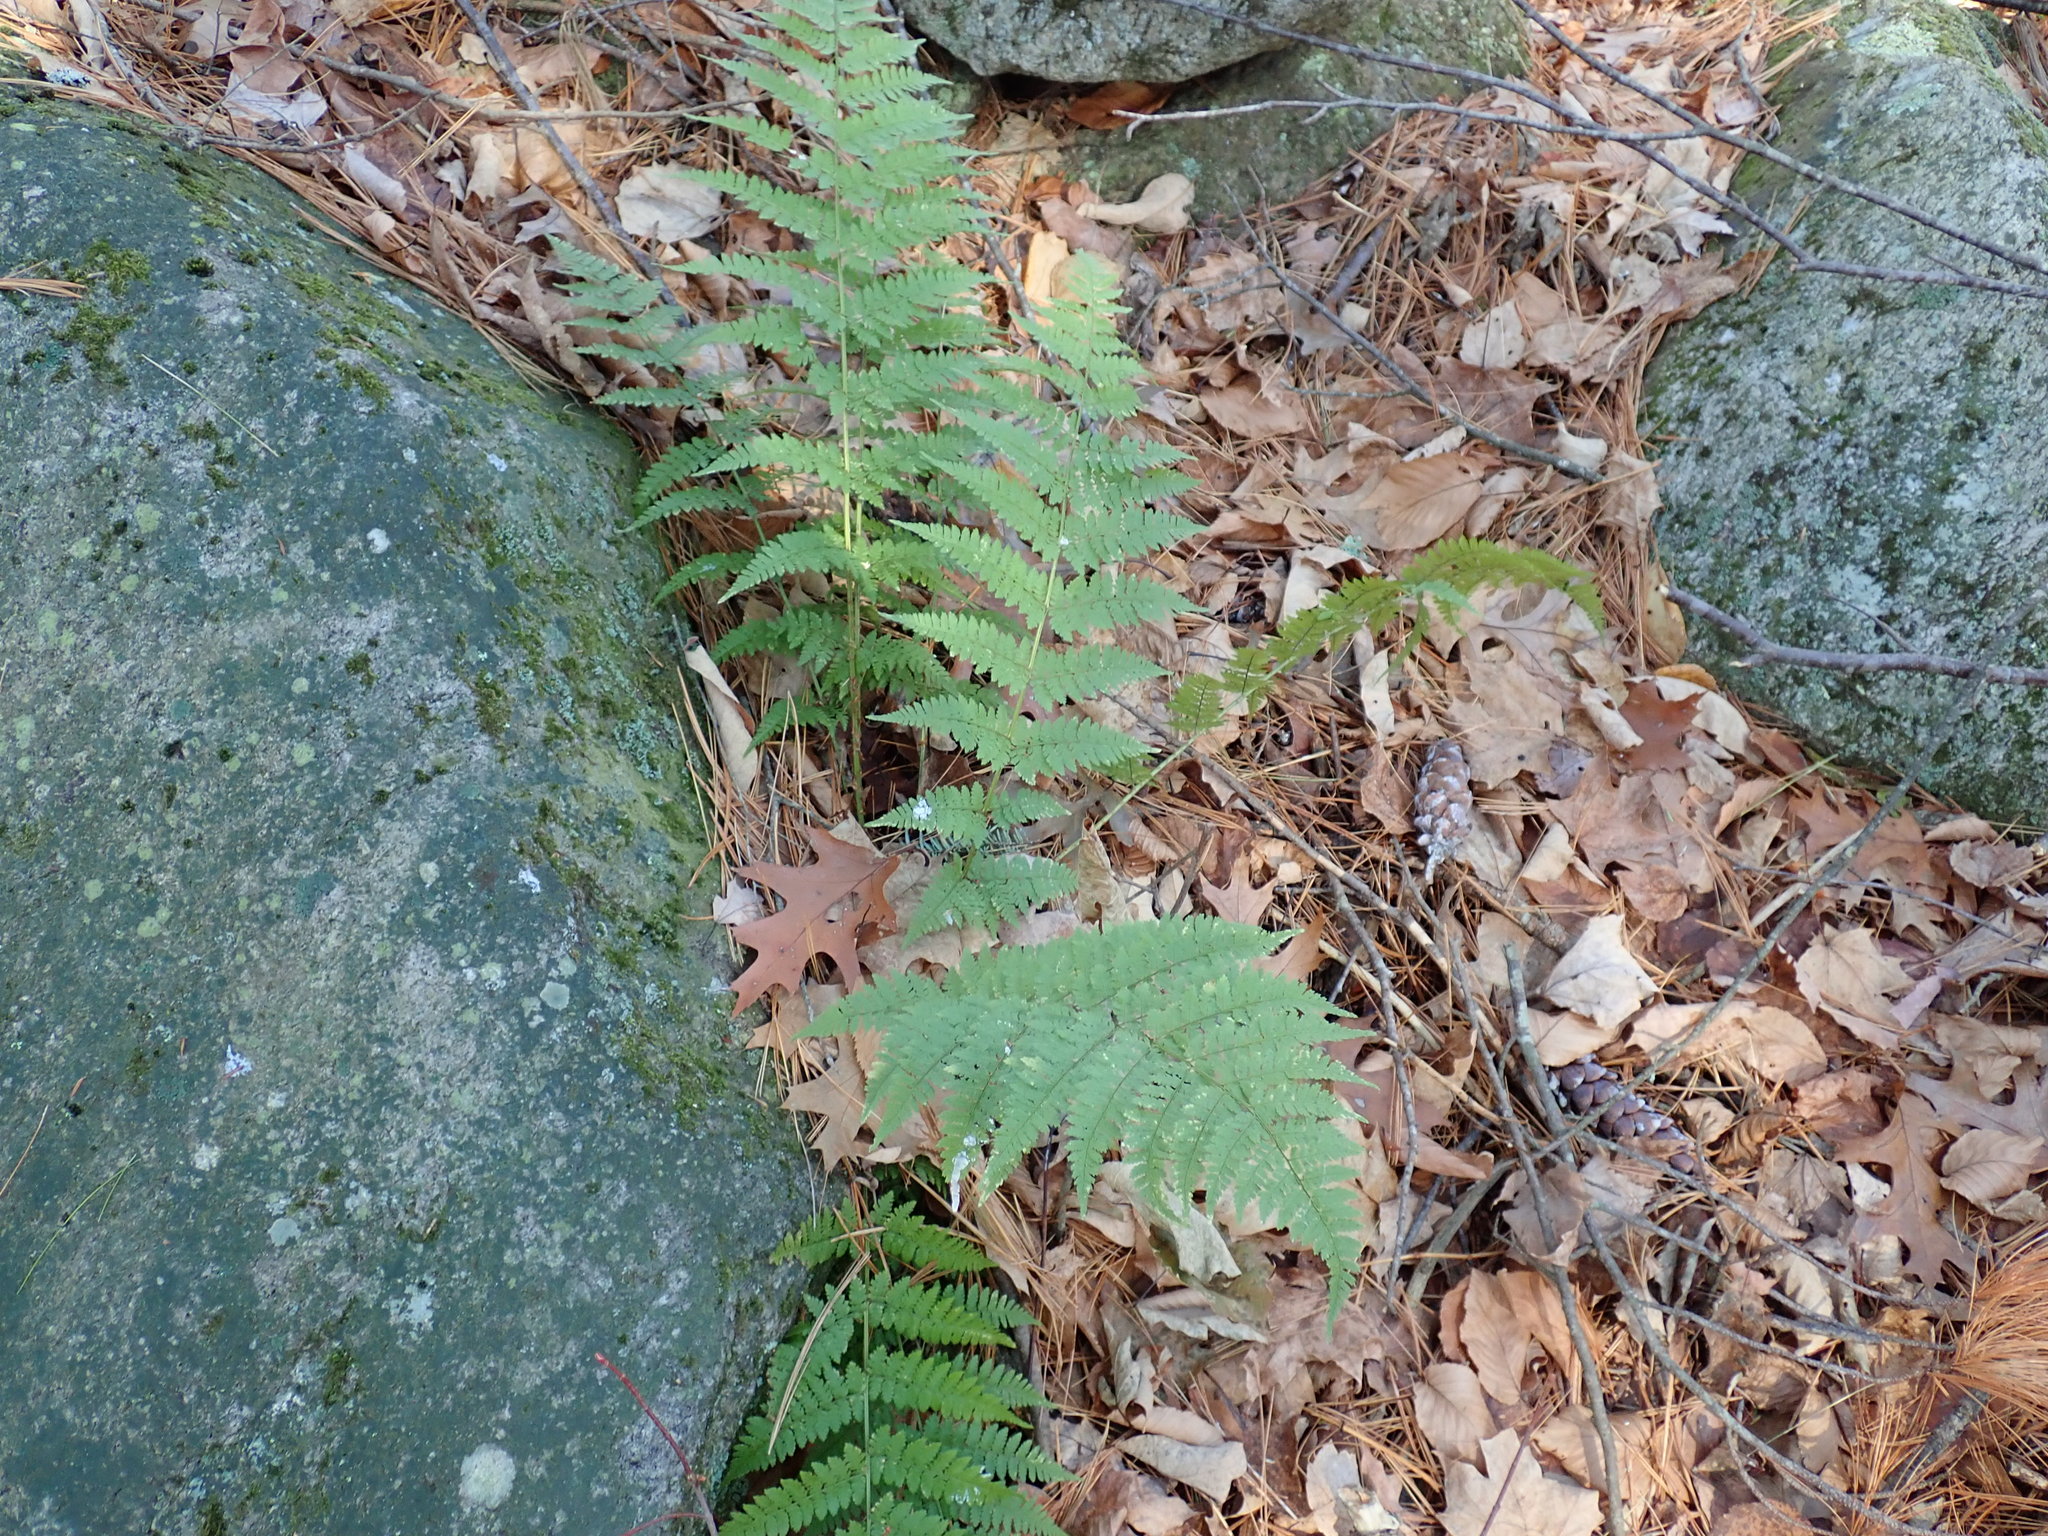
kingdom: Plantae
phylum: Tracheophyta
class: Polypodiopsida
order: Polypodiales
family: Dryopteridaceae
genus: Dryopteris
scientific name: Dryopteris intermedia
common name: Evergreen wood fern
